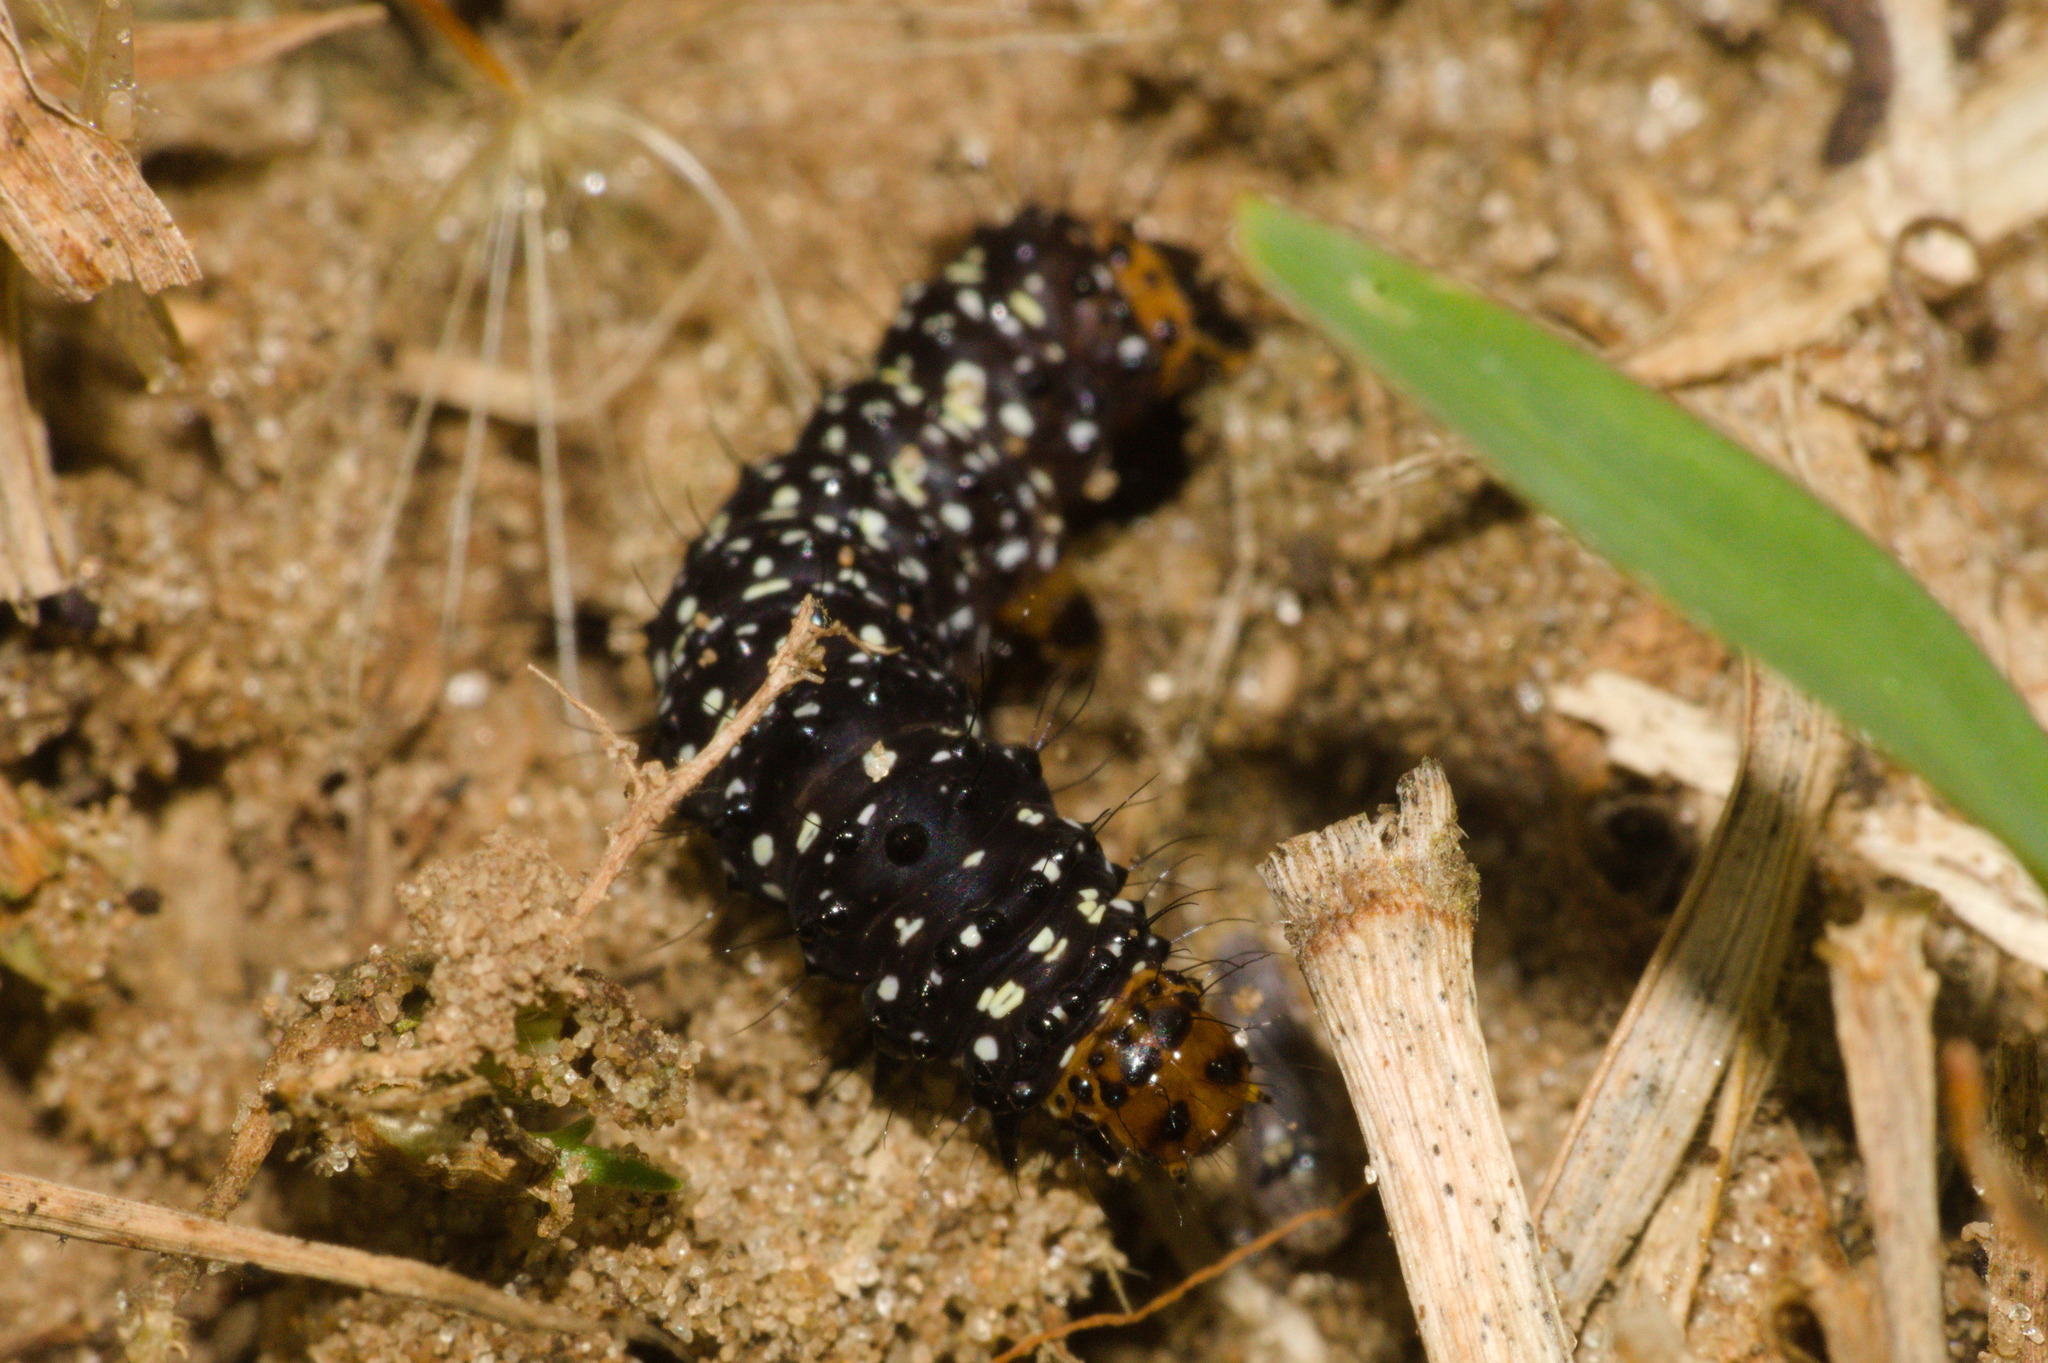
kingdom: Animalia
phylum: Arthropoda
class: Insecta
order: Lepidoptera
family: Noctuidae
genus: Xanthopastis
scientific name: Xanthopastis timais
